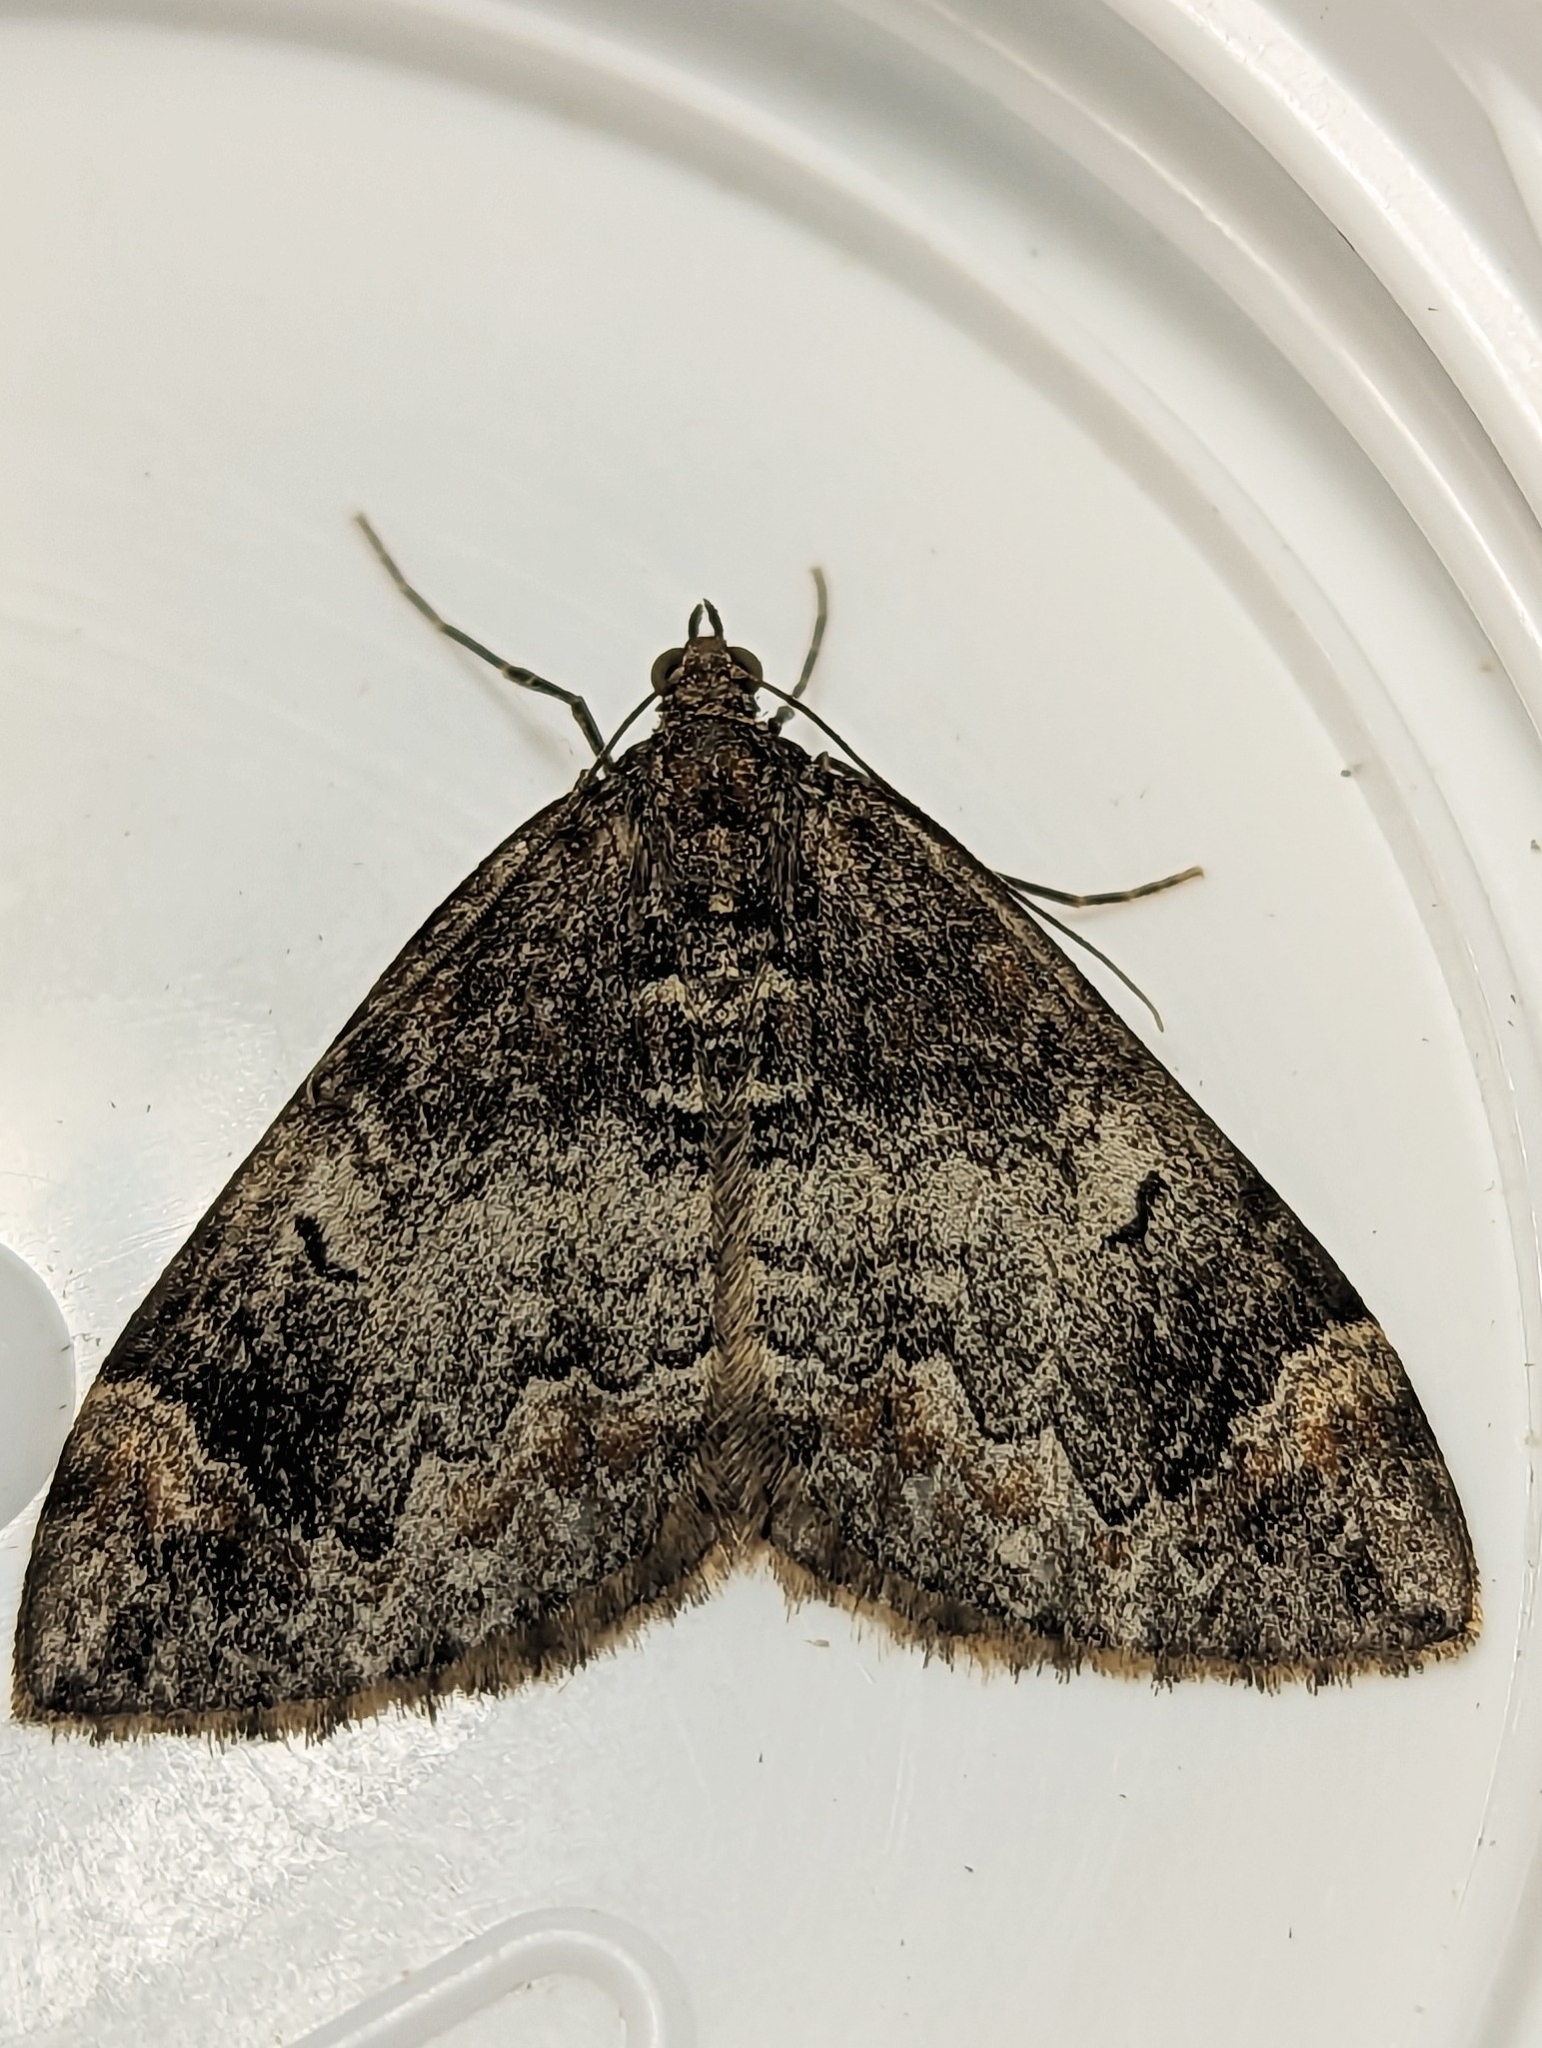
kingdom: Animalia
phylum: Arthropoda
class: Insecta
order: Lepidoptera
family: Geometridae
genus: Dysstroma
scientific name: Dysstroma truncata
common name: Common marbled carpet
